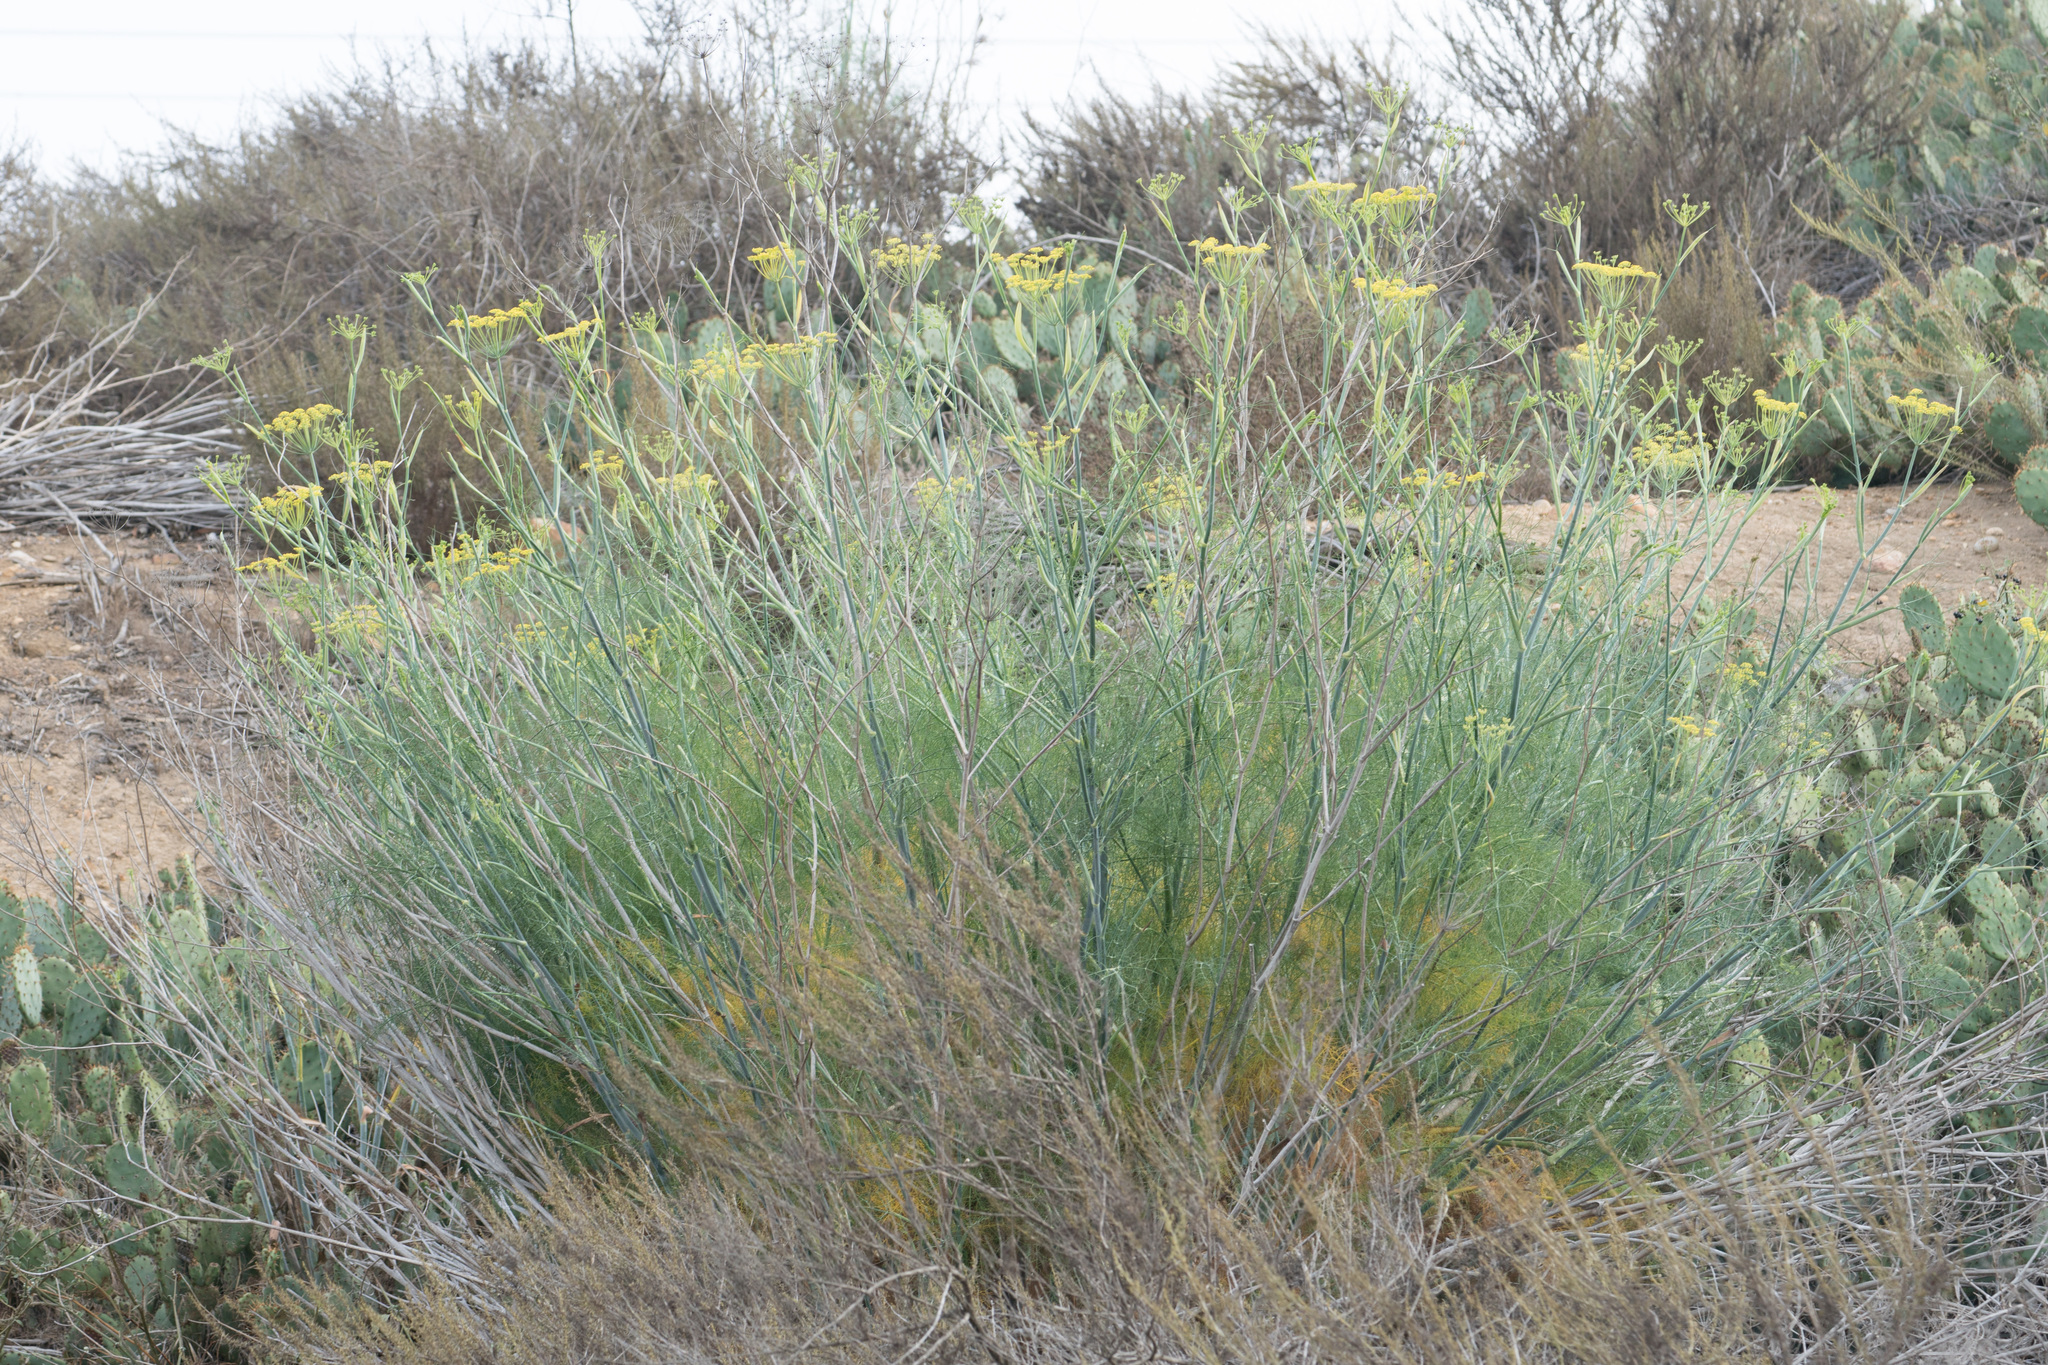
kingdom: Plantae
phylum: Tracheophyta
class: Magnoliopsida
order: Apiales
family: Apiaceae
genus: Foeniculum
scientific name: Foeniculum vulgare
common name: Fennel
